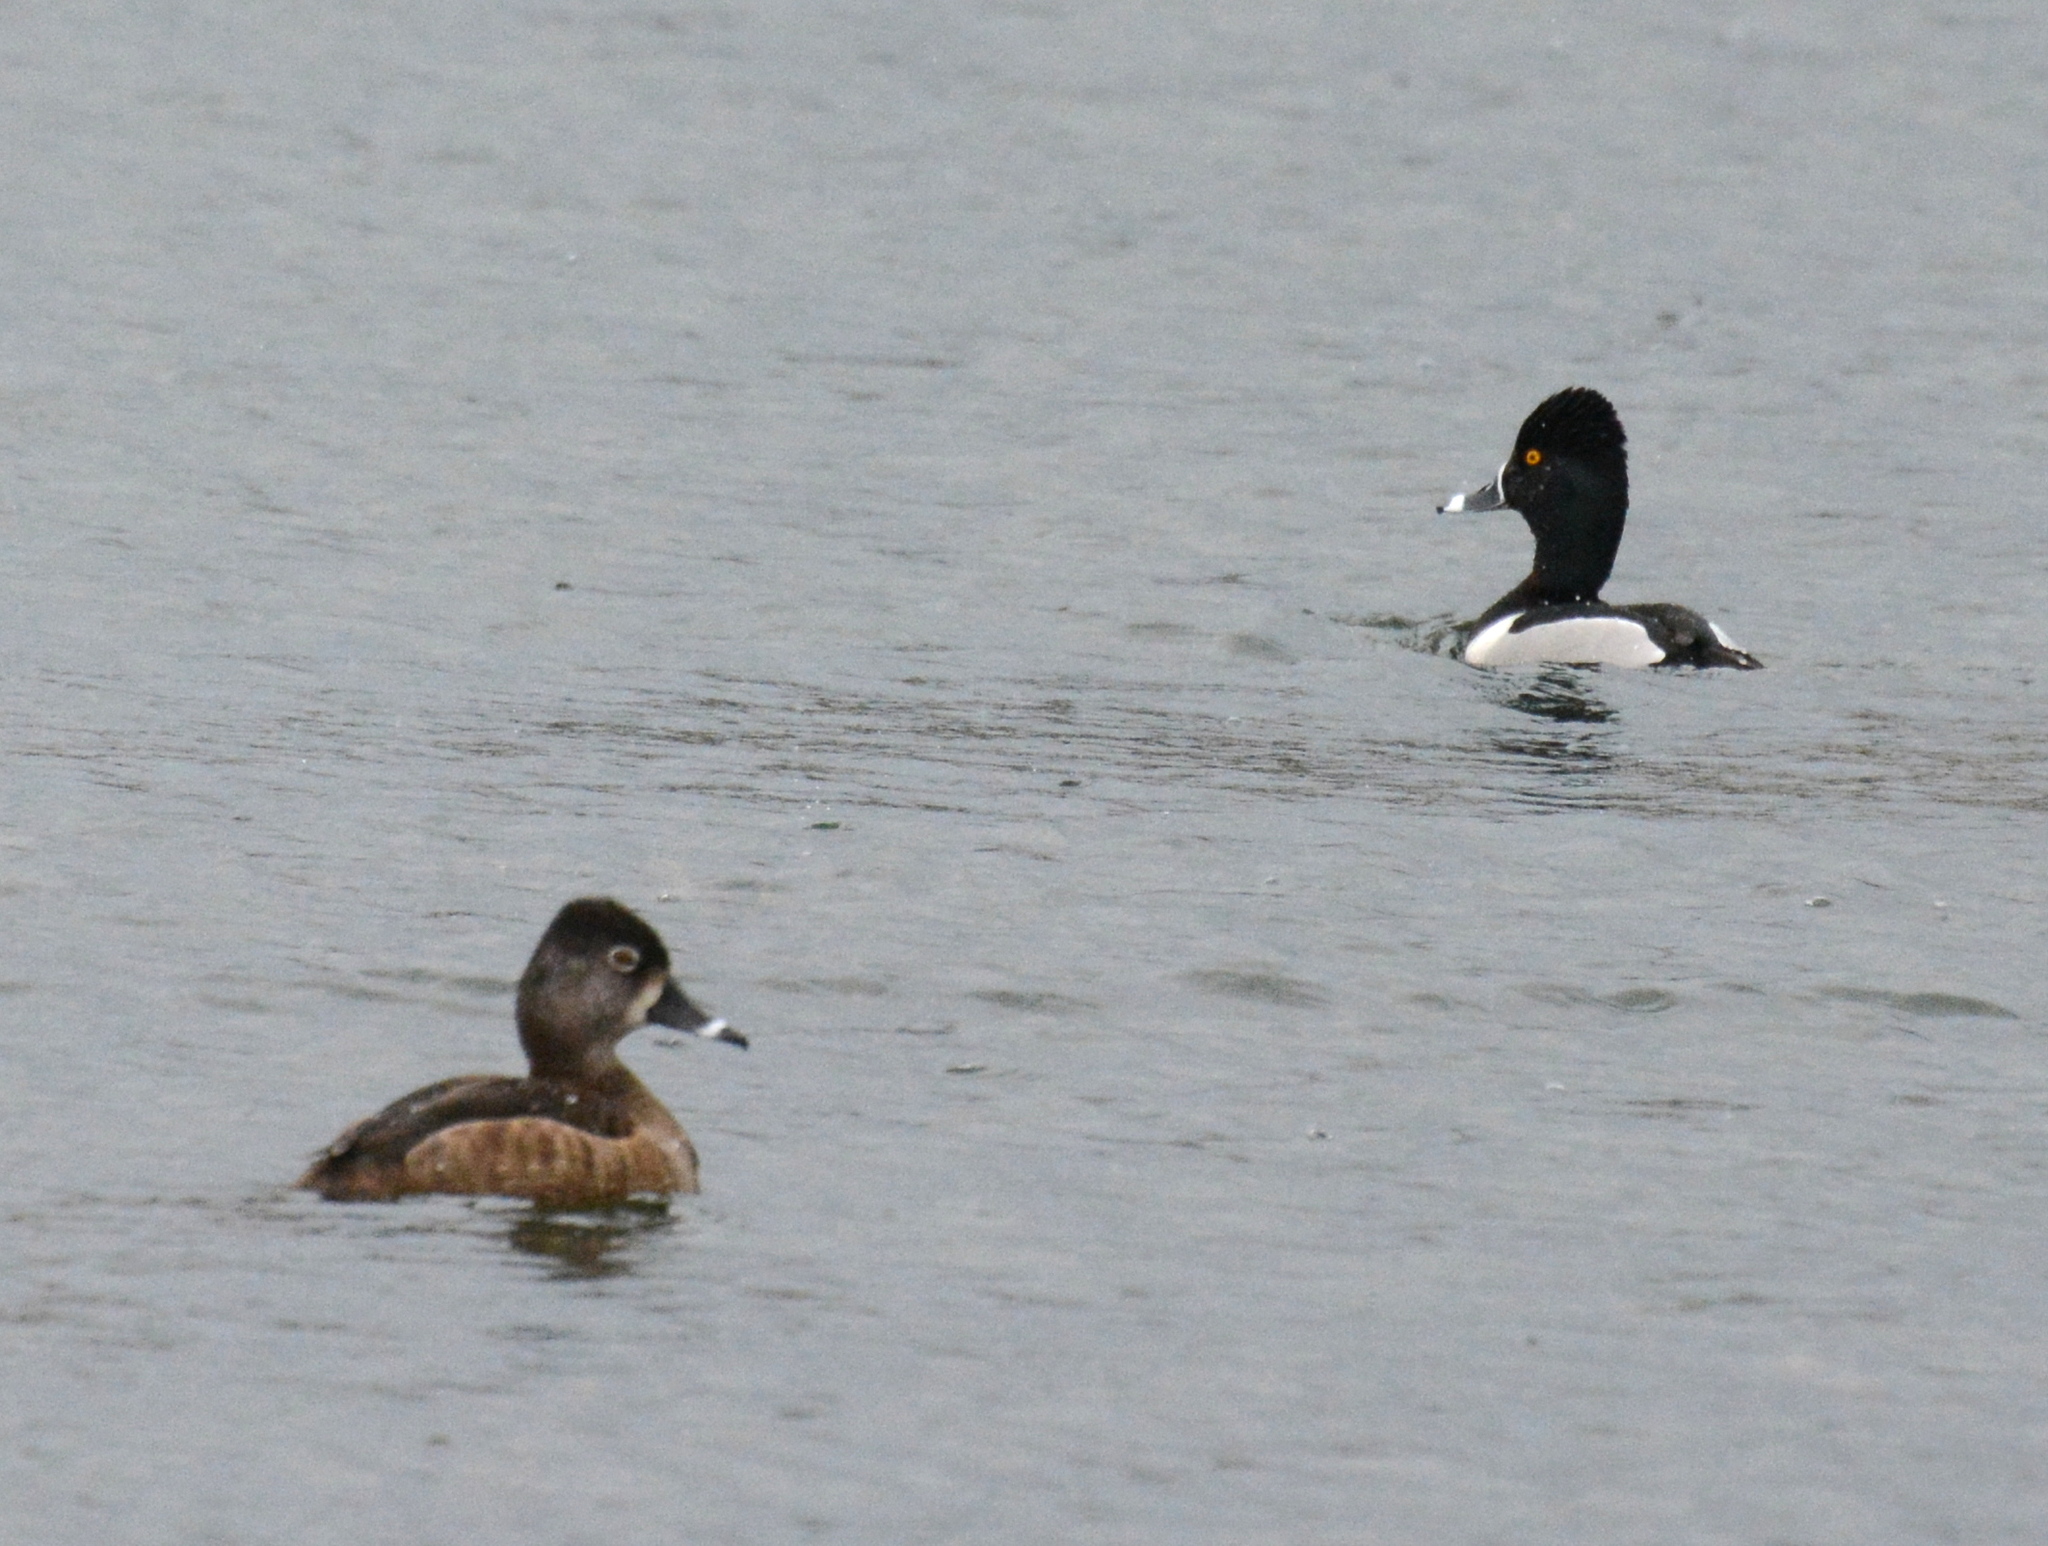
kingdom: Animalia
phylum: Chordata
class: Aves
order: Anseriformes
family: Anatidae
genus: Aythya
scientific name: Aythya collaris
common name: Ring-necked duck
